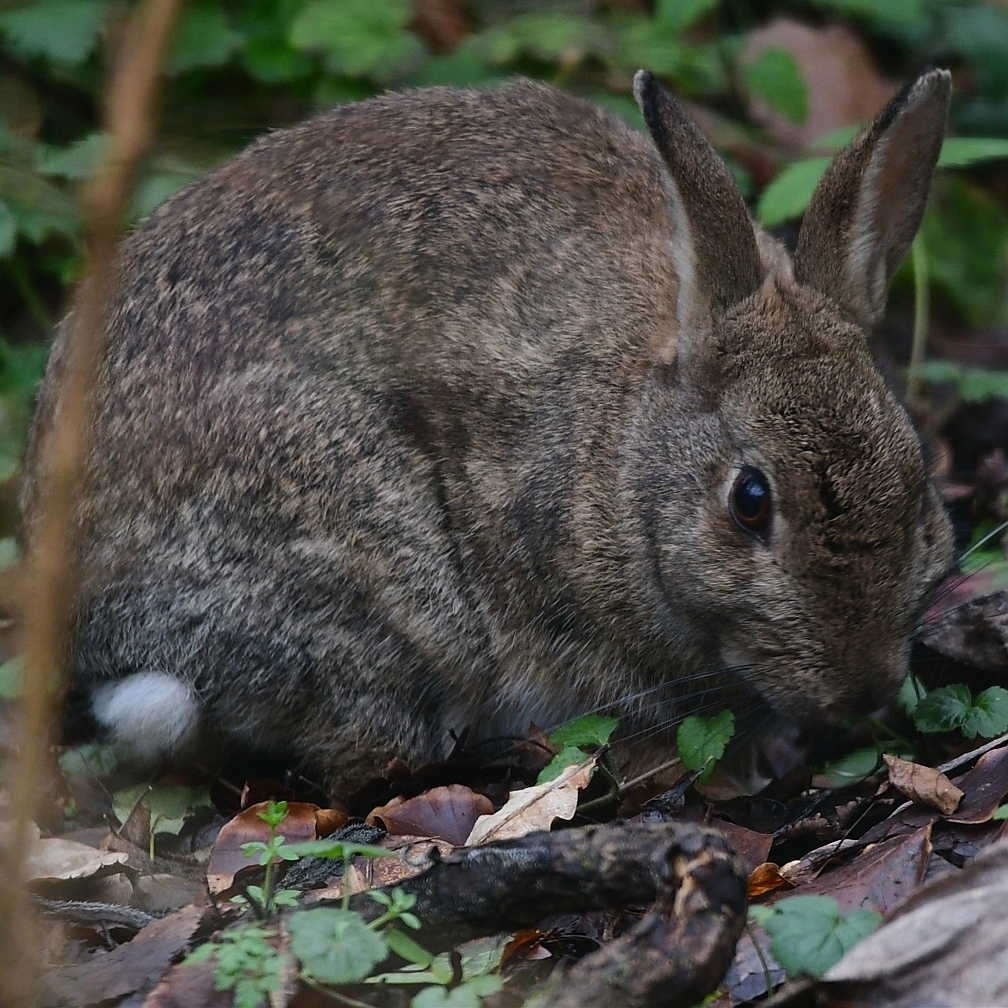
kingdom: Animalia
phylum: Chordata
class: Mammalia
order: Lagomorpha
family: Leporidae
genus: Oryctolagus
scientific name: Oryctolagus cuniculus
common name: European rabbit
